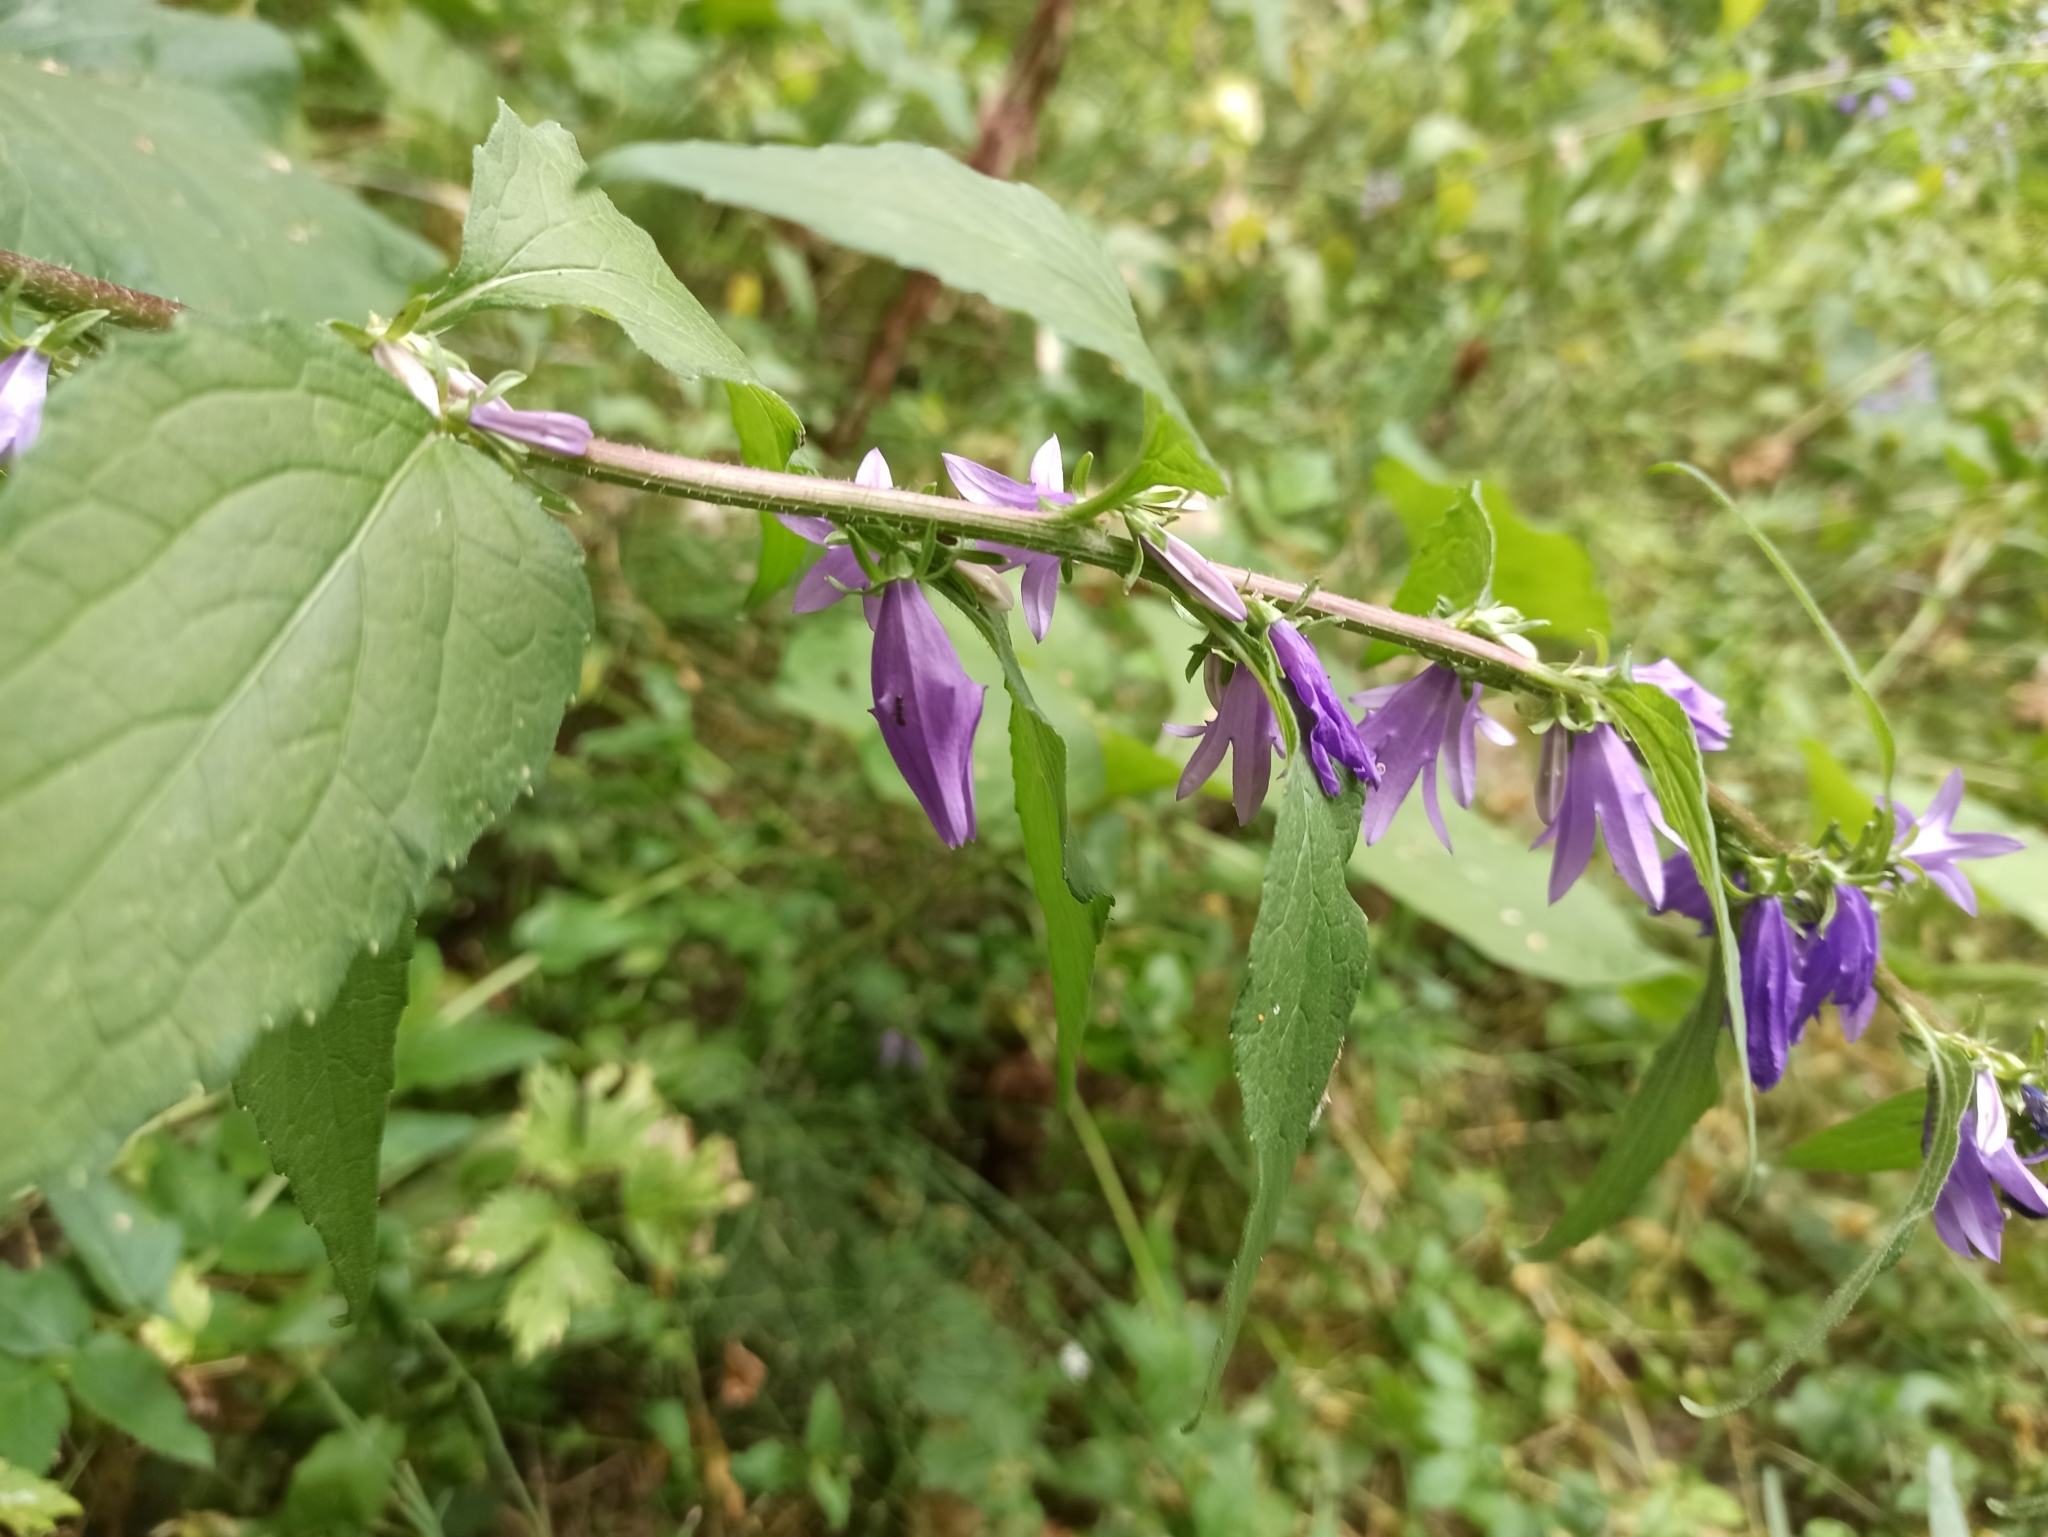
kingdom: Plantae
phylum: Tracheophyta
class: Magnoliopsida
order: Asterales
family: Campanulaceae
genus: Campanula
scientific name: Campanula rapunculoides
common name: Creeping bellflower
